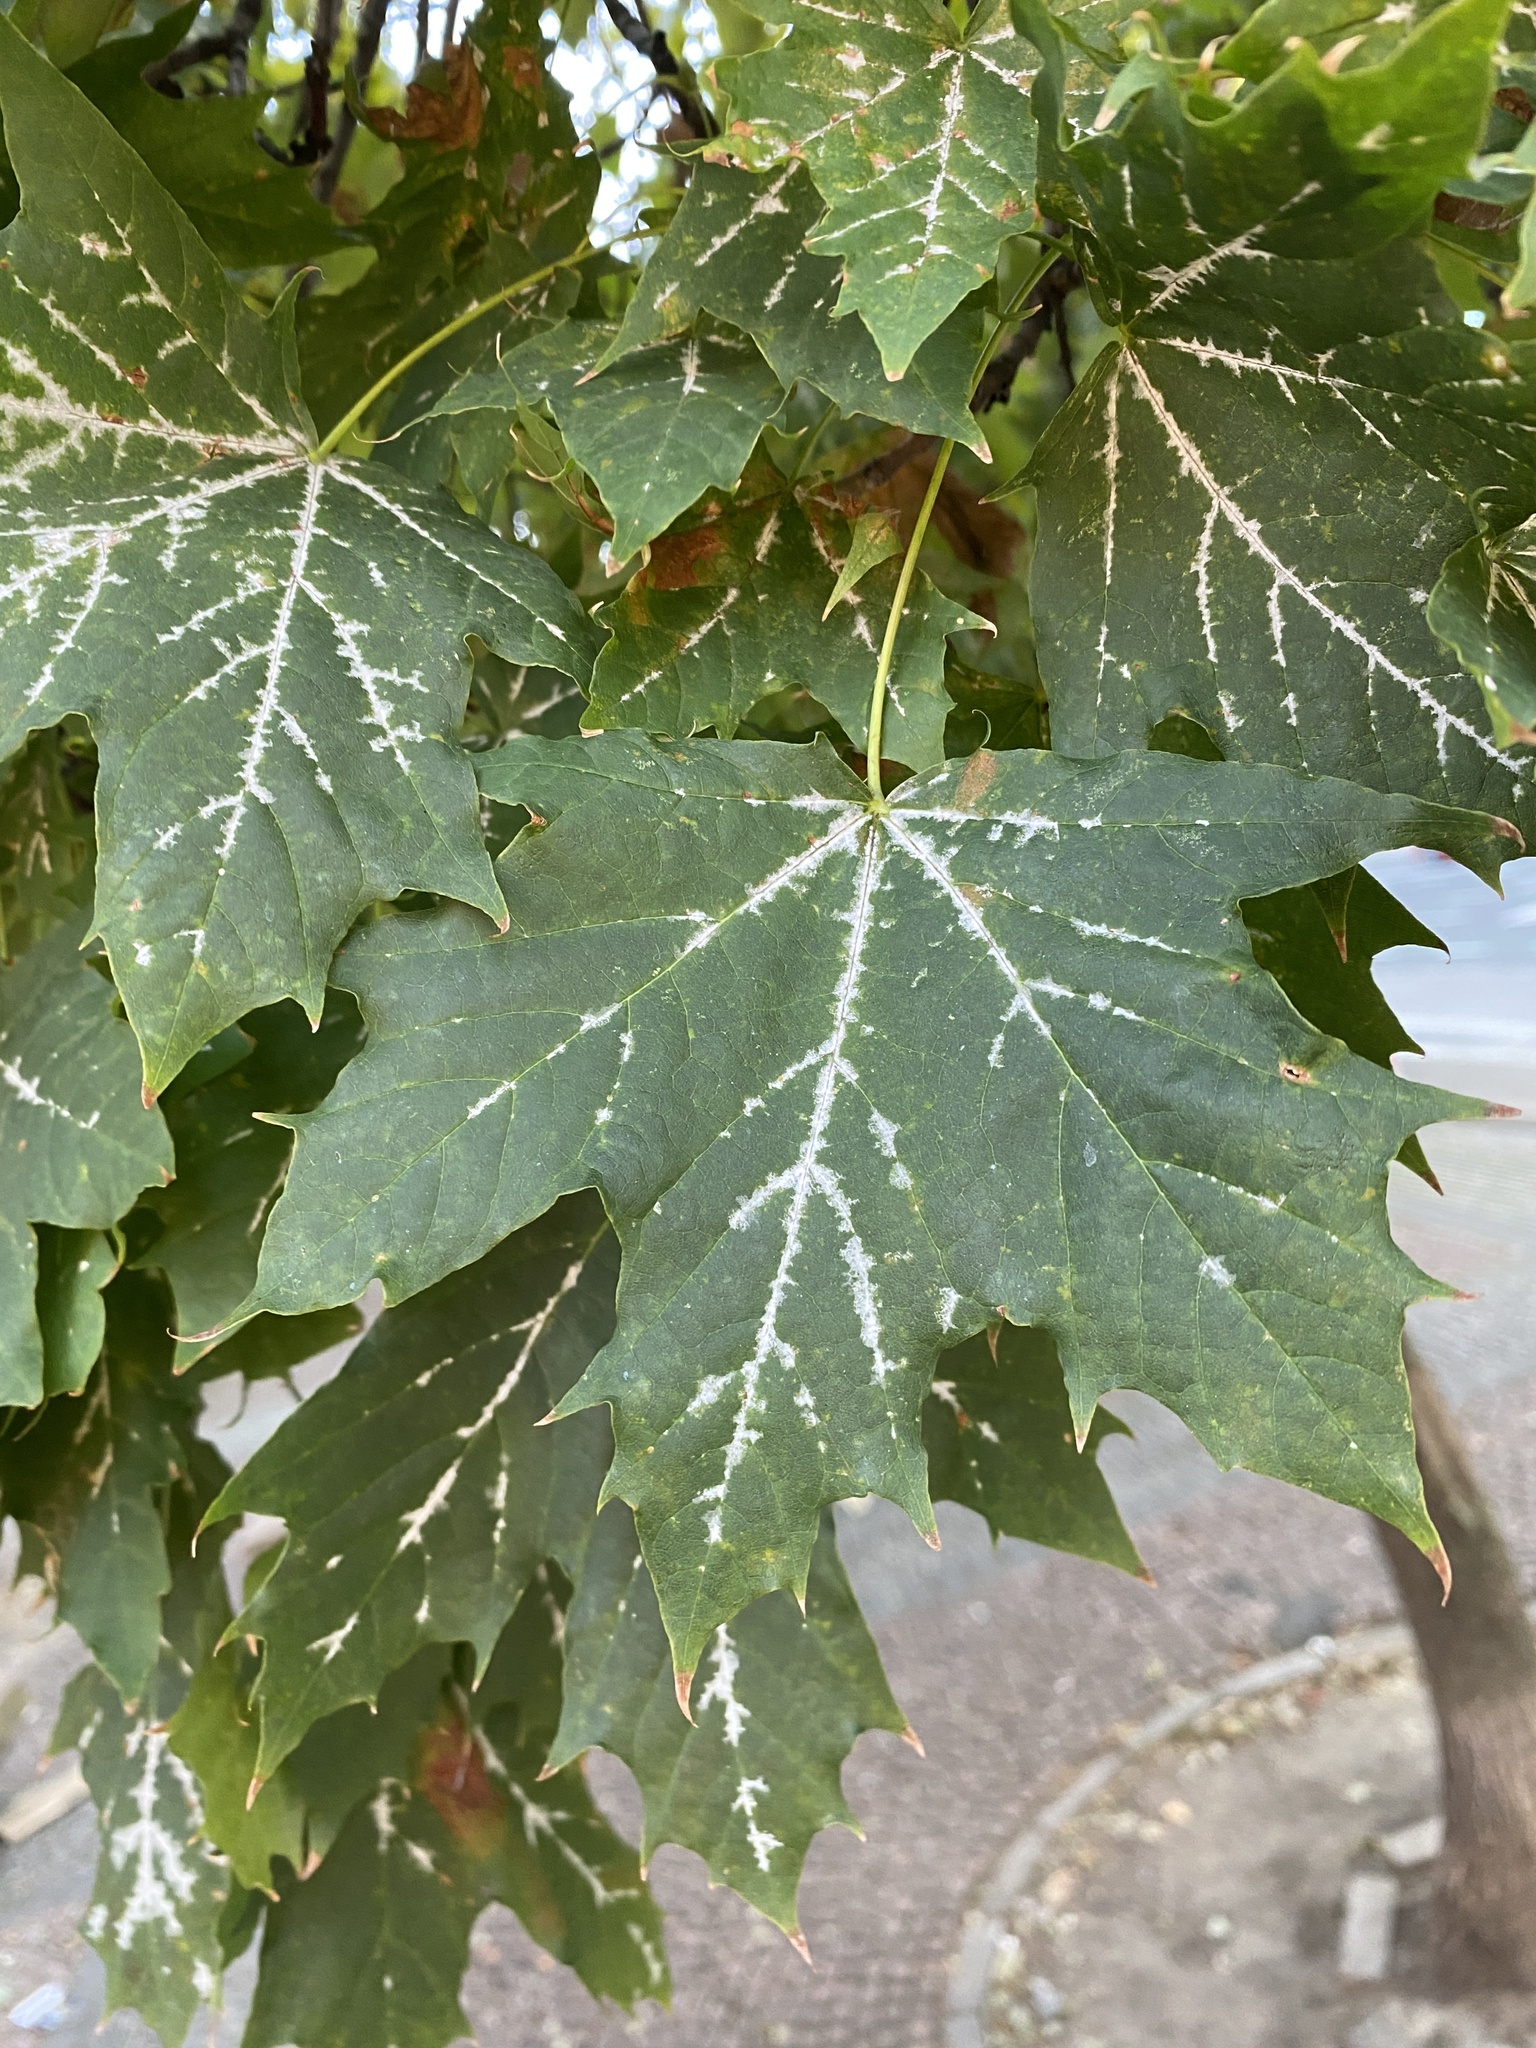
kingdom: Plantae
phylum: Tracheophyta
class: Magnoliopsida
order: Sapindales
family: Sapindaceae
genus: Acer
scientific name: Acer platanoides
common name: Norway maple
